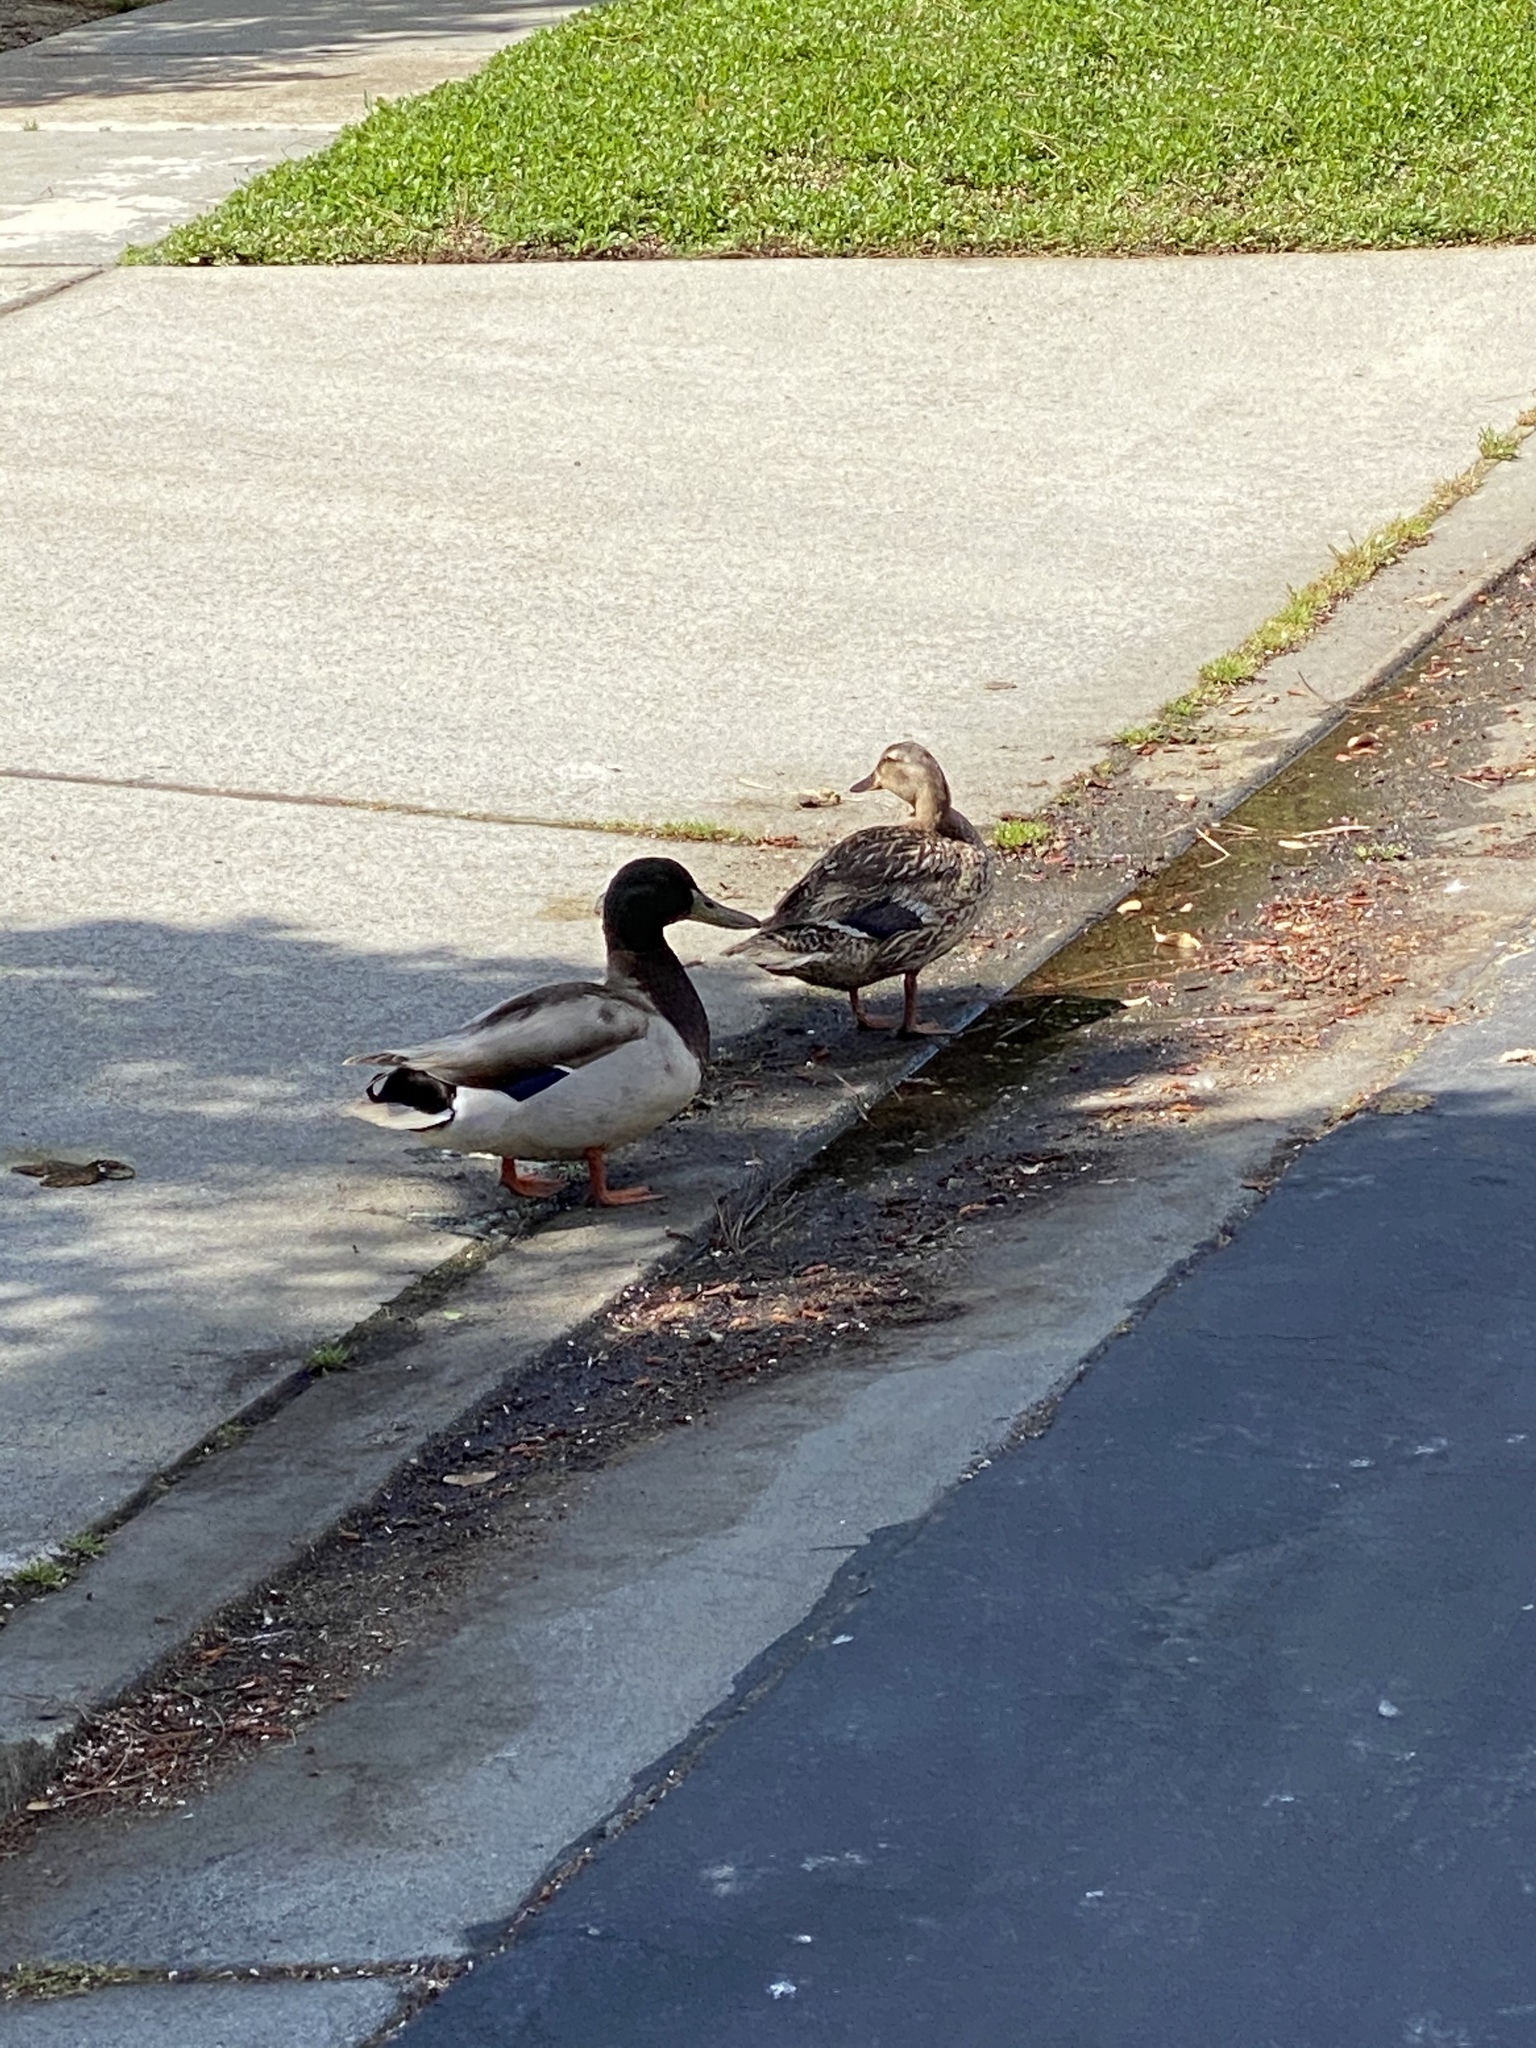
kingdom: Animalia
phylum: Chordata
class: Aves
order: Anseriformes
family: Anatidae
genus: Anas
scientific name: Anas platyrhynchos
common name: Mallard
